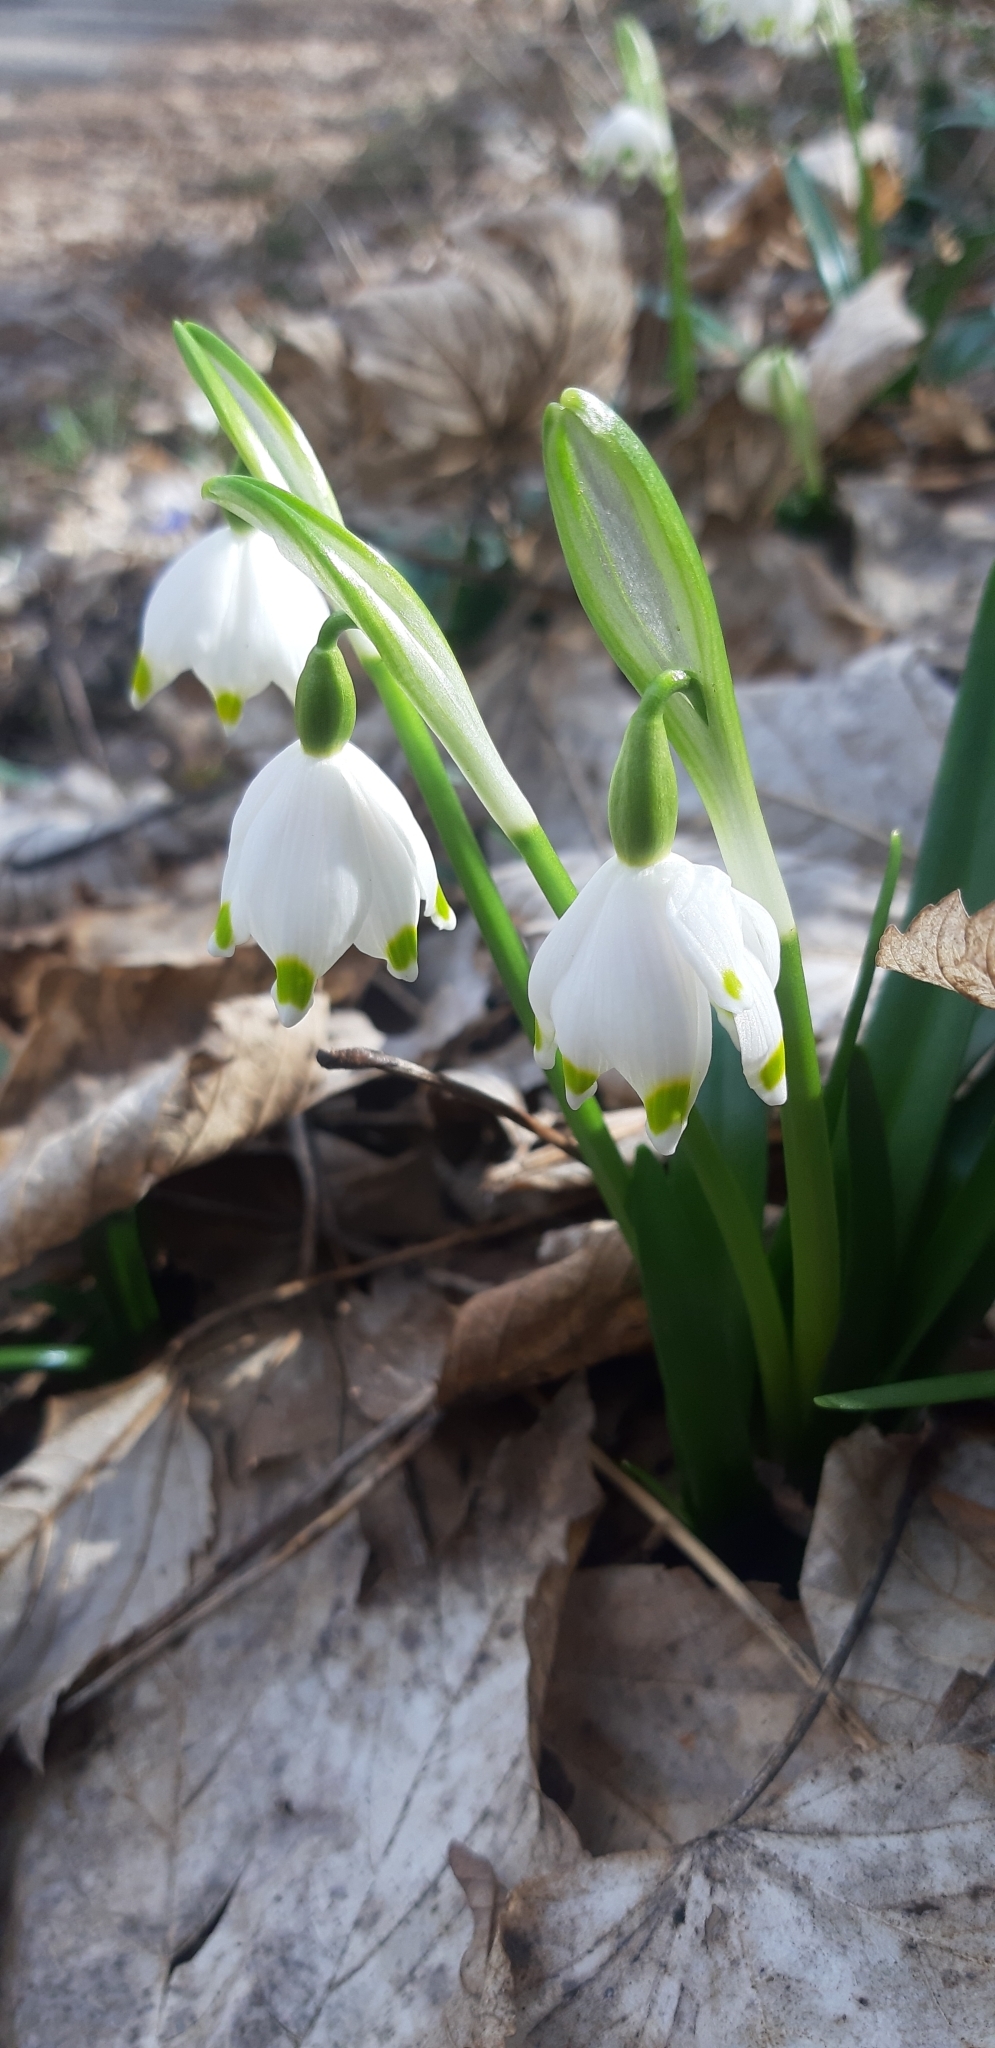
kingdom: Plantae
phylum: Tracheophyta
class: Liliopsida
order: Asparagales
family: Amaryllidaceae
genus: Leucojum
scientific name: Leucojum vernum
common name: Spring snowflake
